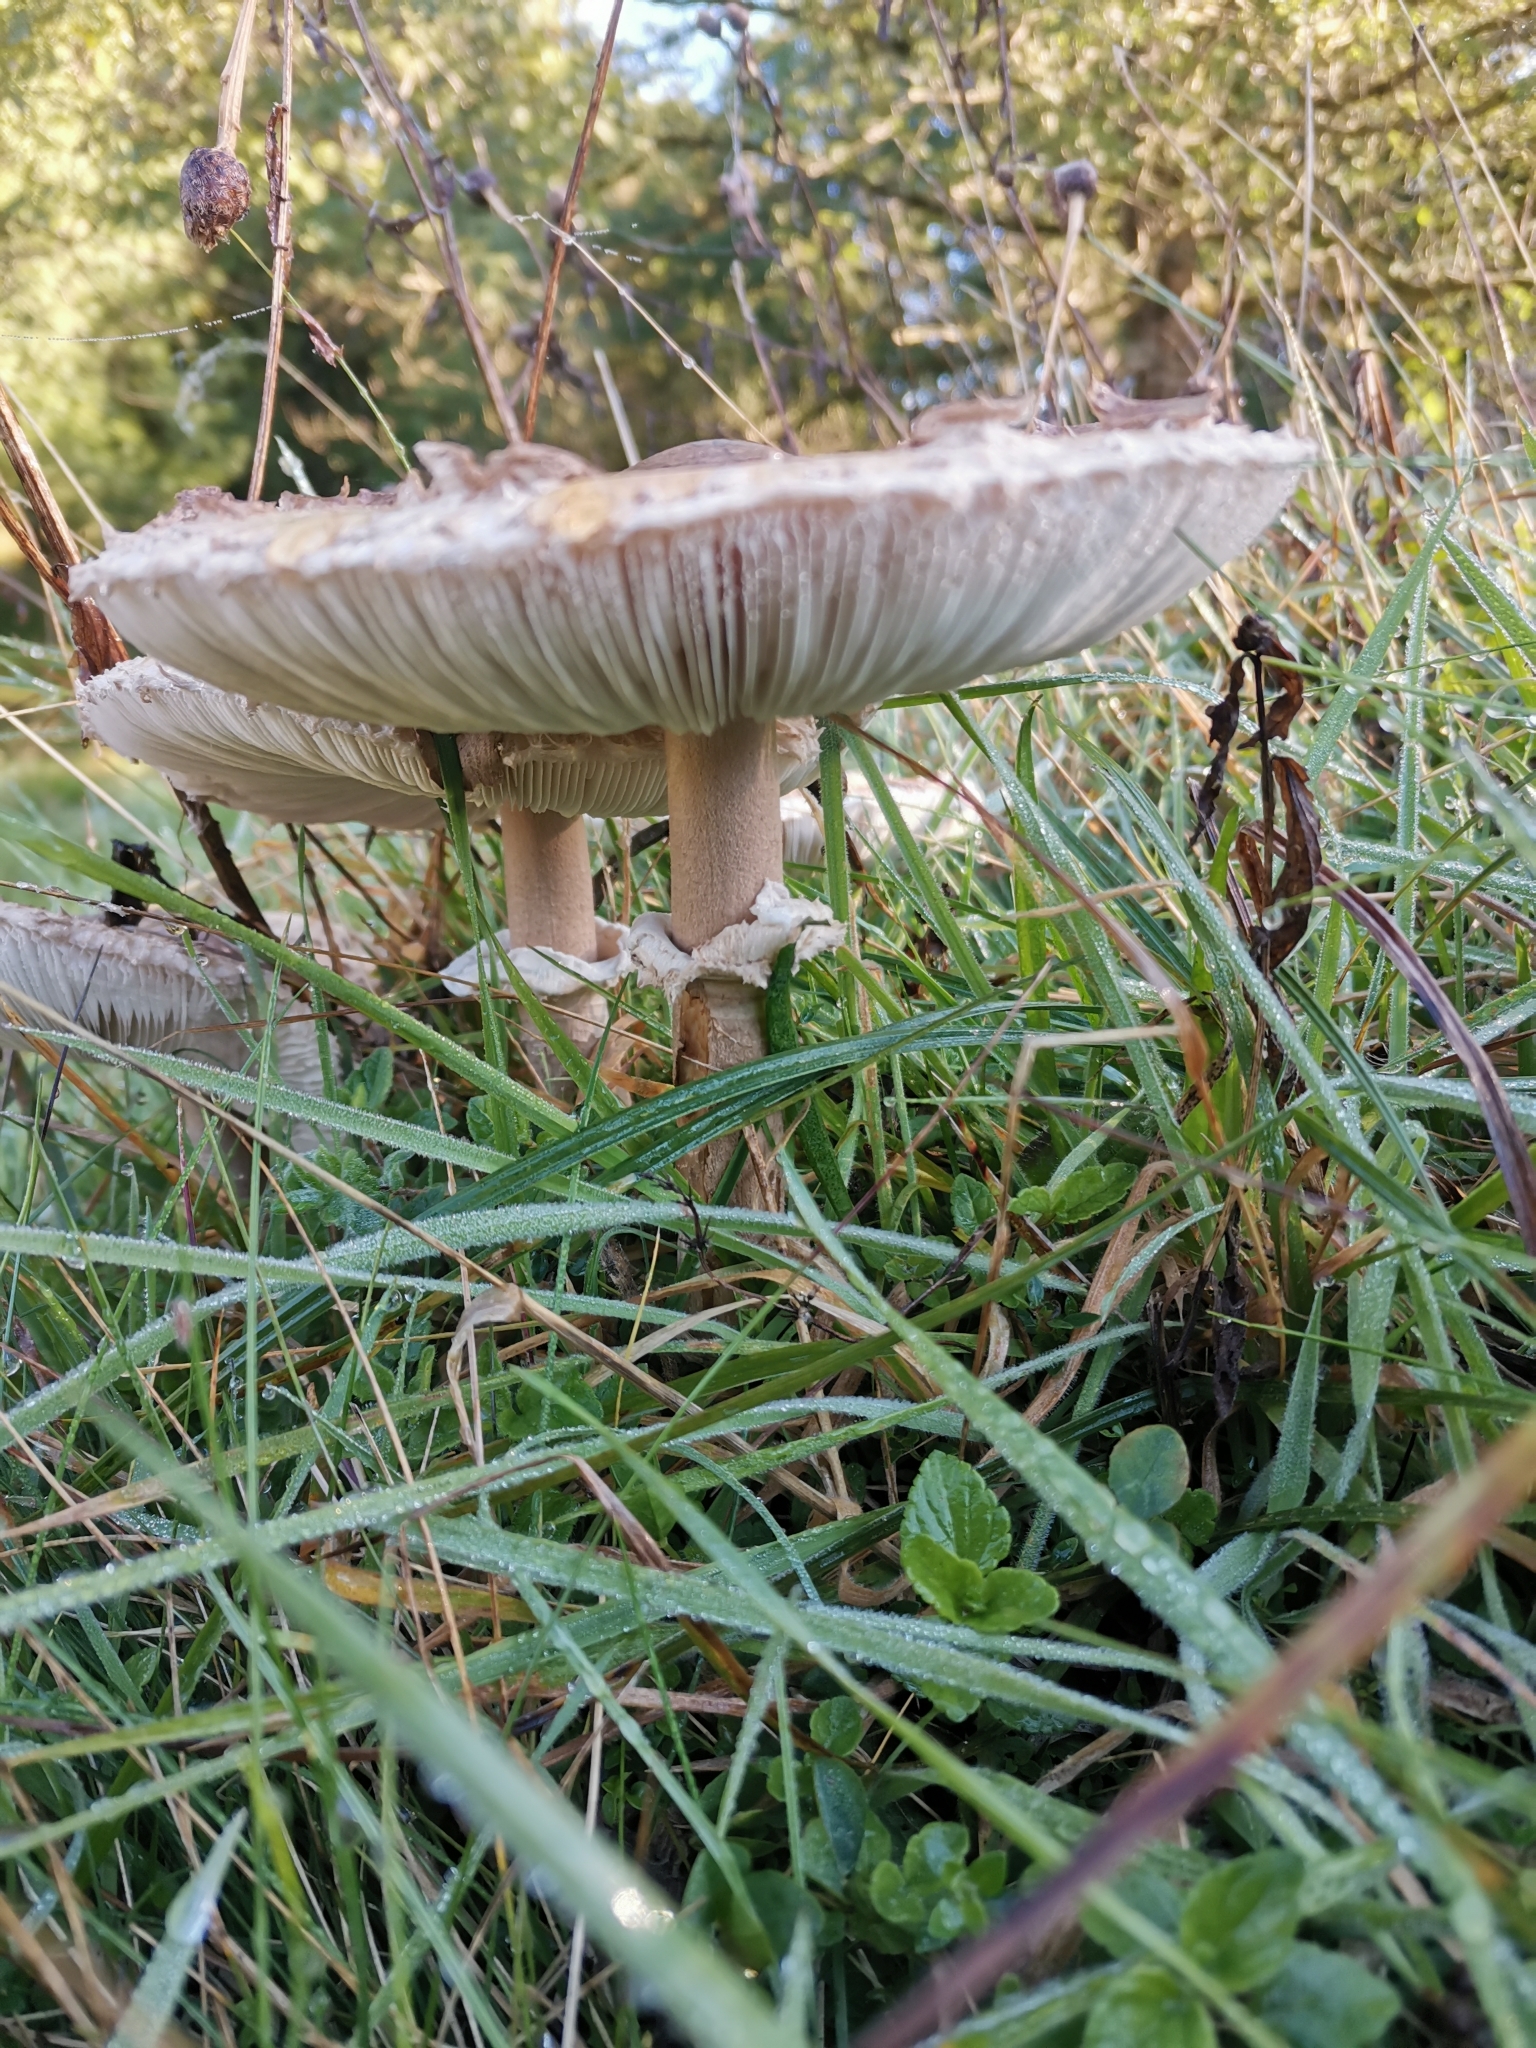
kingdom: Fungi
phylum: Basidiomycota
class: Agaricomycetes
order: Agaricales
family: Agaricaceae
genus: Macrolepiota
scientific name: Macrolepiota procera
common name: Parasol
